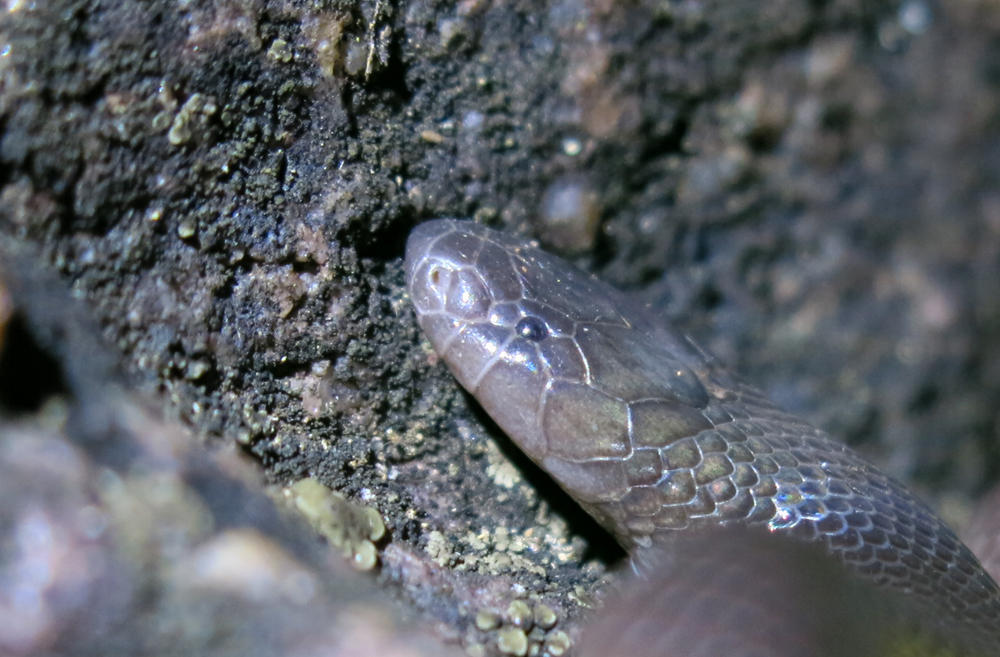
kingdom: Animalia
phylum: Chordata
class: Squamata
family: Atractaspididae
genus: Atractaspis
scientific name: Atractaspis bibronii
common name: Bibron's burrowing asp
